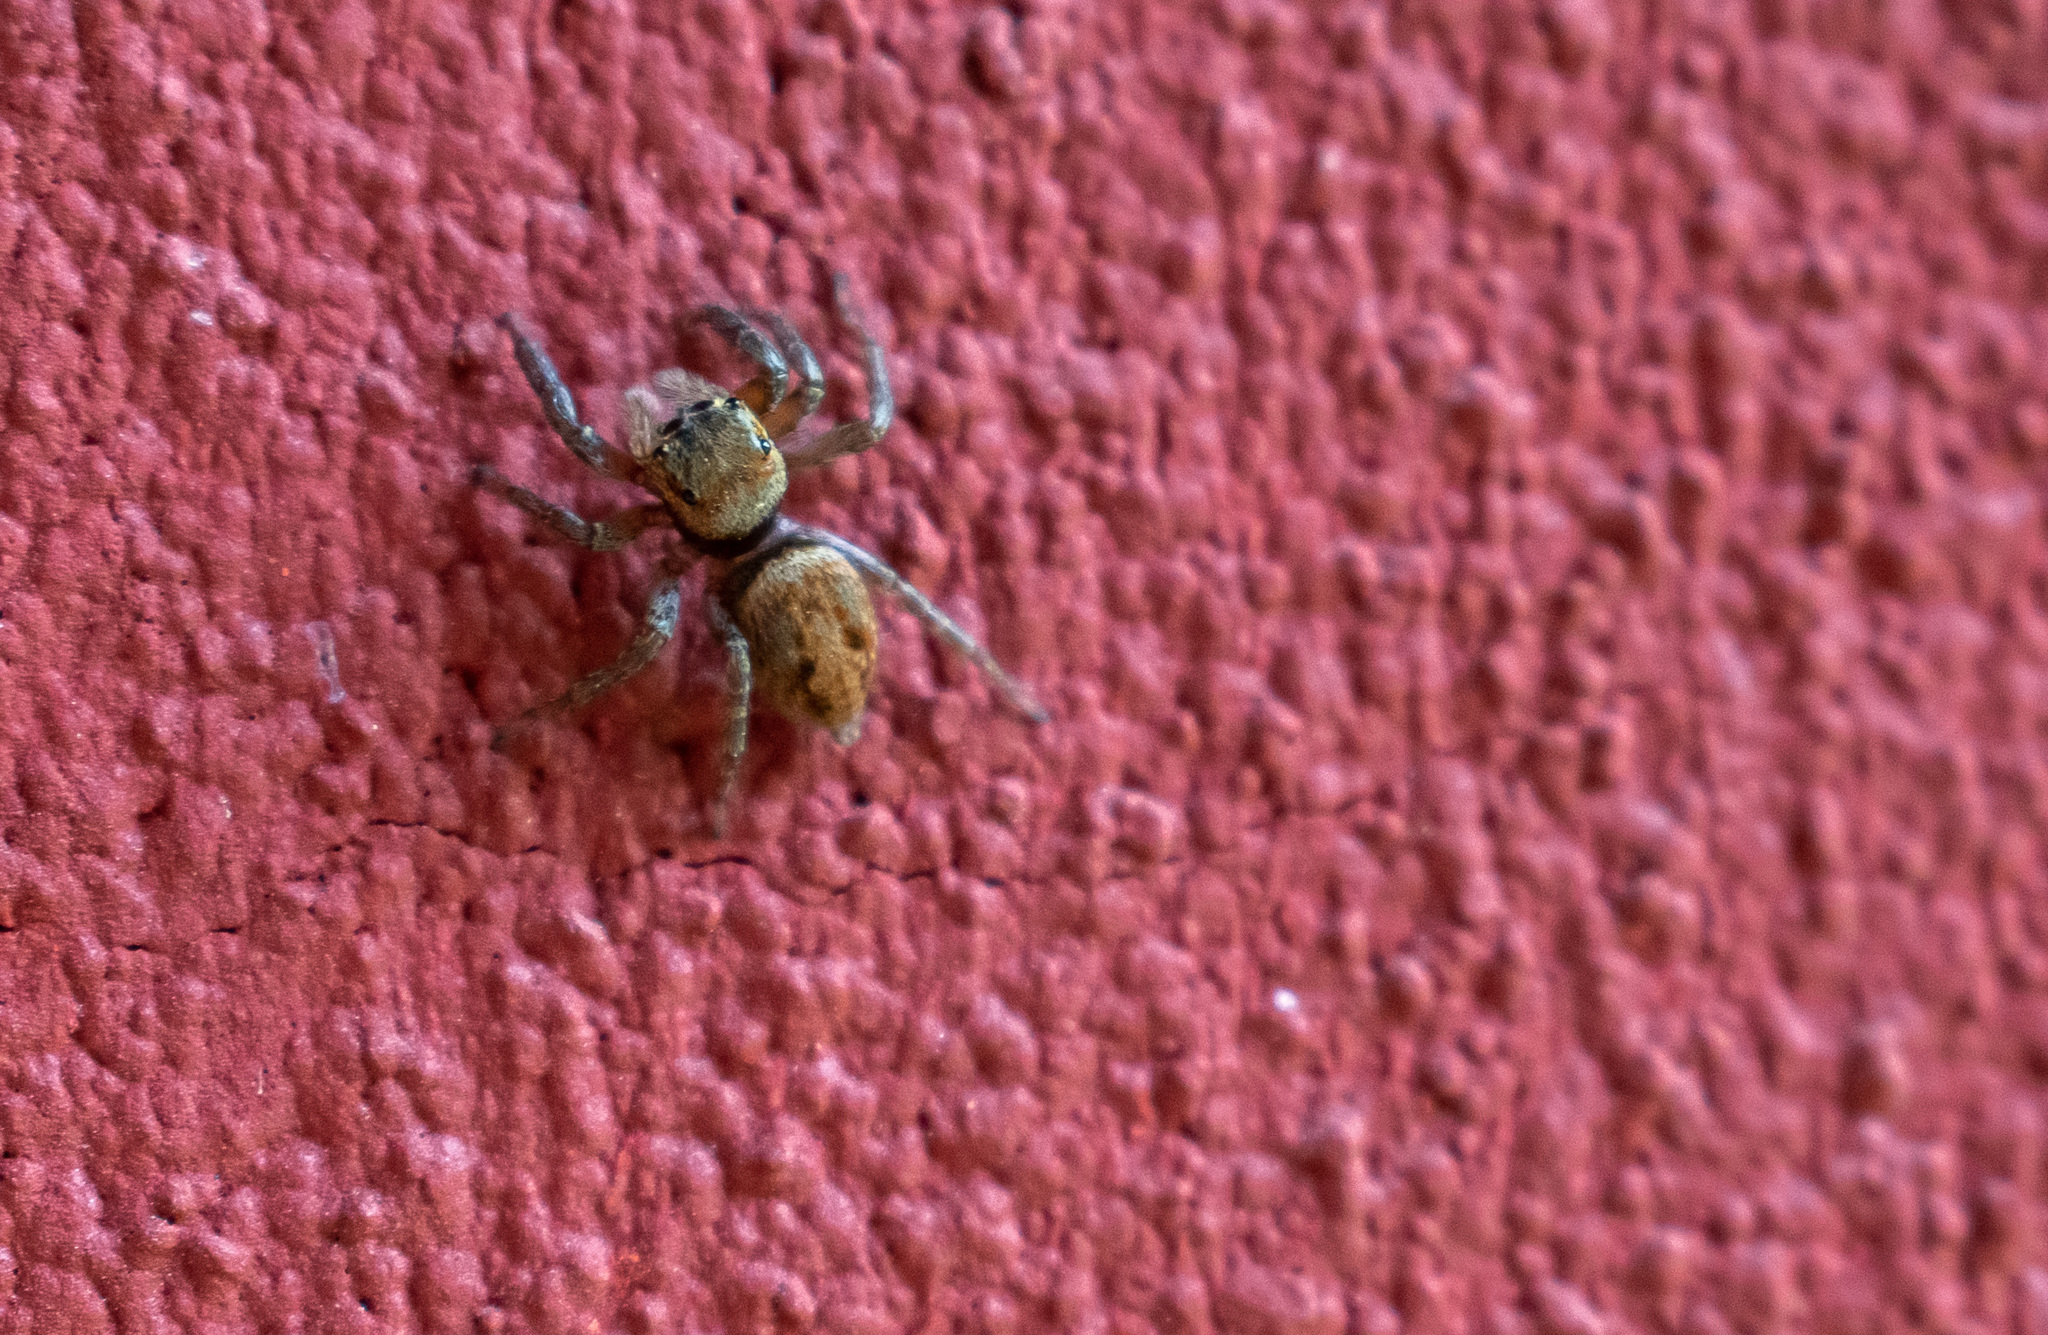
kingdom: Animalia
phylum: Arthropoda
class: Arachnida
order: Araneae
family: Salticidae
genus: Hasarius
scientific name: Hasarius adansoni
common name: Jumping spider
